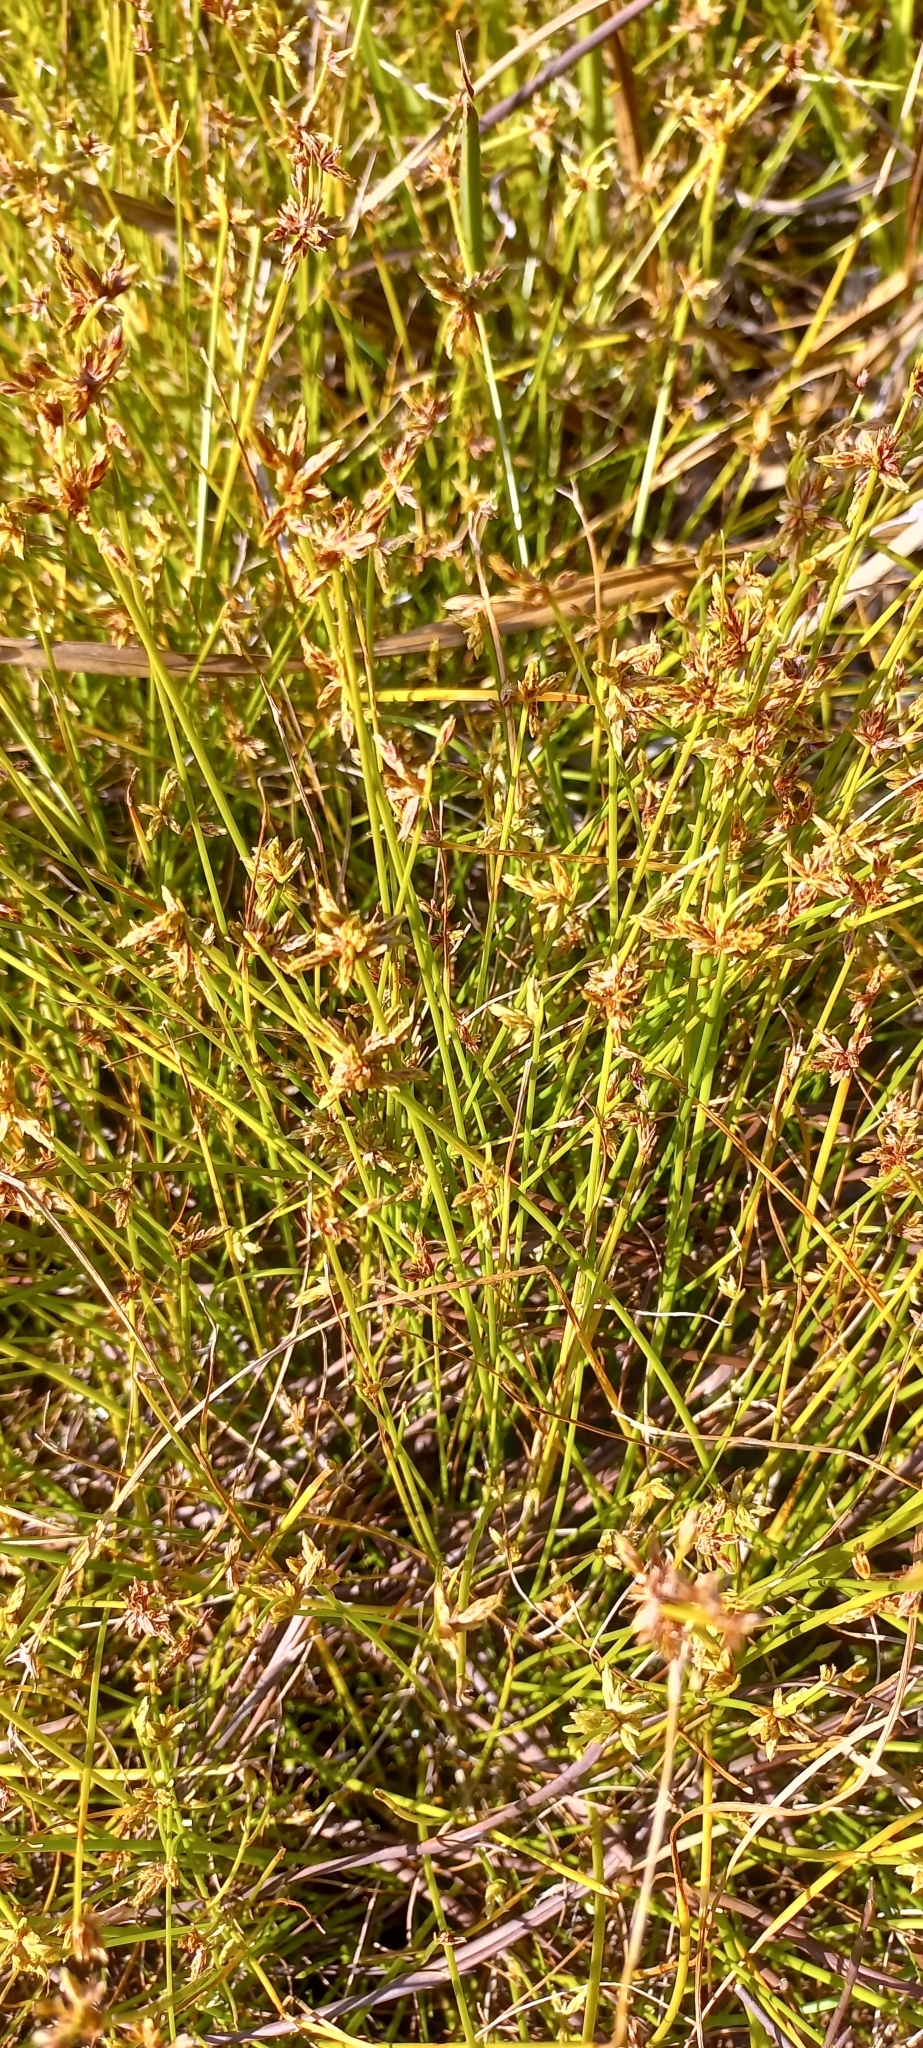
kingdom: Plantae
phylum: Tracheophyta
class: Liliopsida
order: Poales
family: Cyperaceae
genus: Isolepis
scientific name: Isolepis prolifera
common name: Proliferating bulrush
